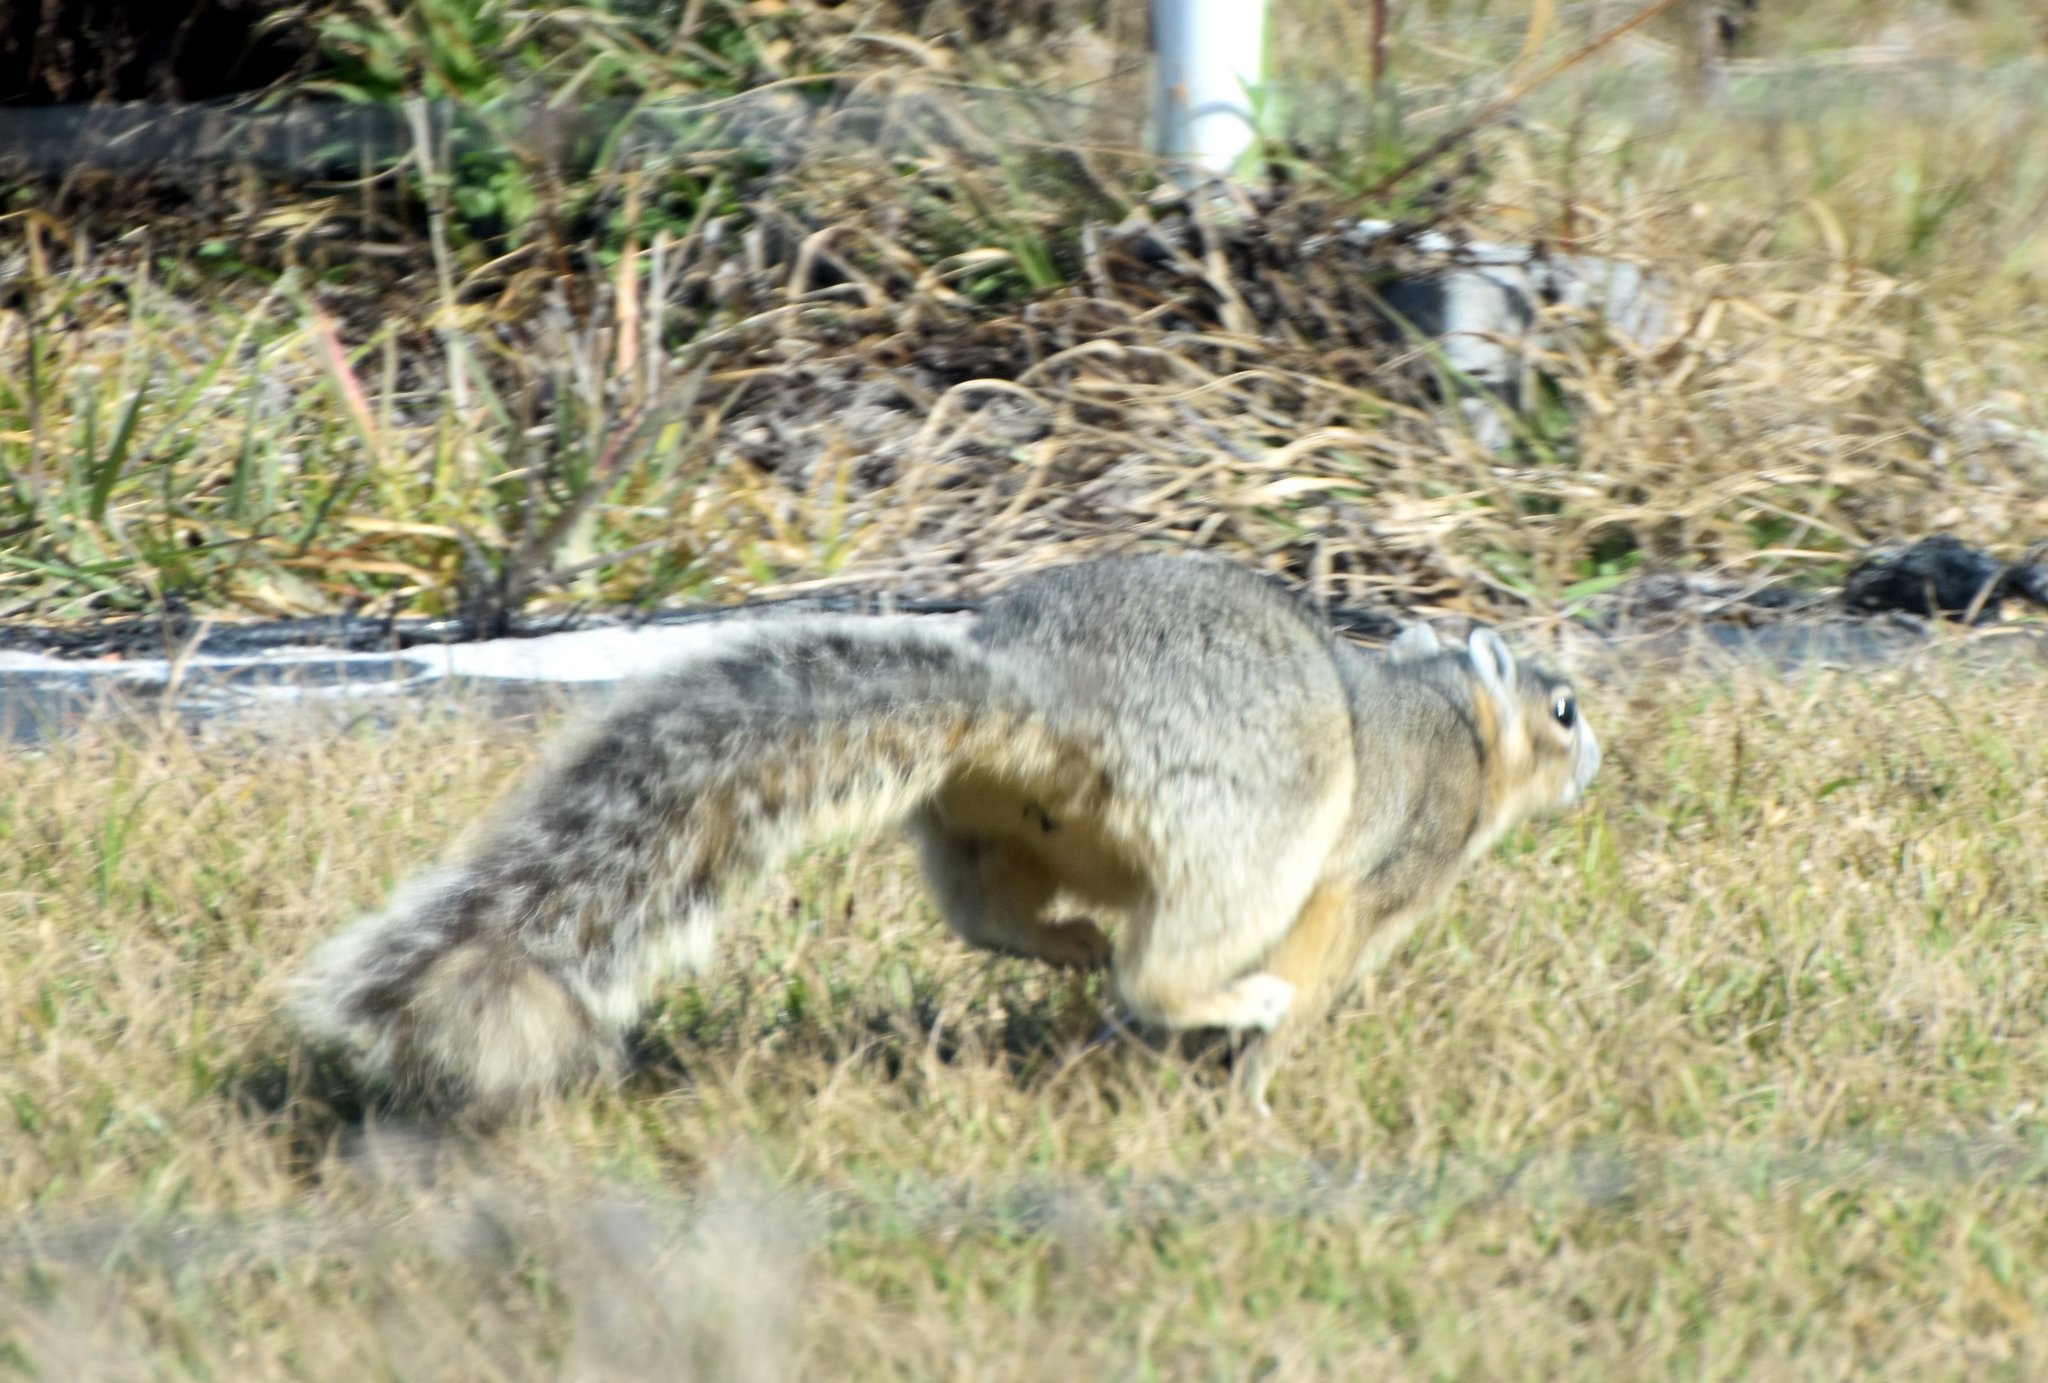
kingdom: Animalia
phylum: Chordata
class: Mammalia
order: Rodentia
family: Sciuridae
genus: Sciurus
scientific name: Sciurus niger
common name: Fox squirrel
